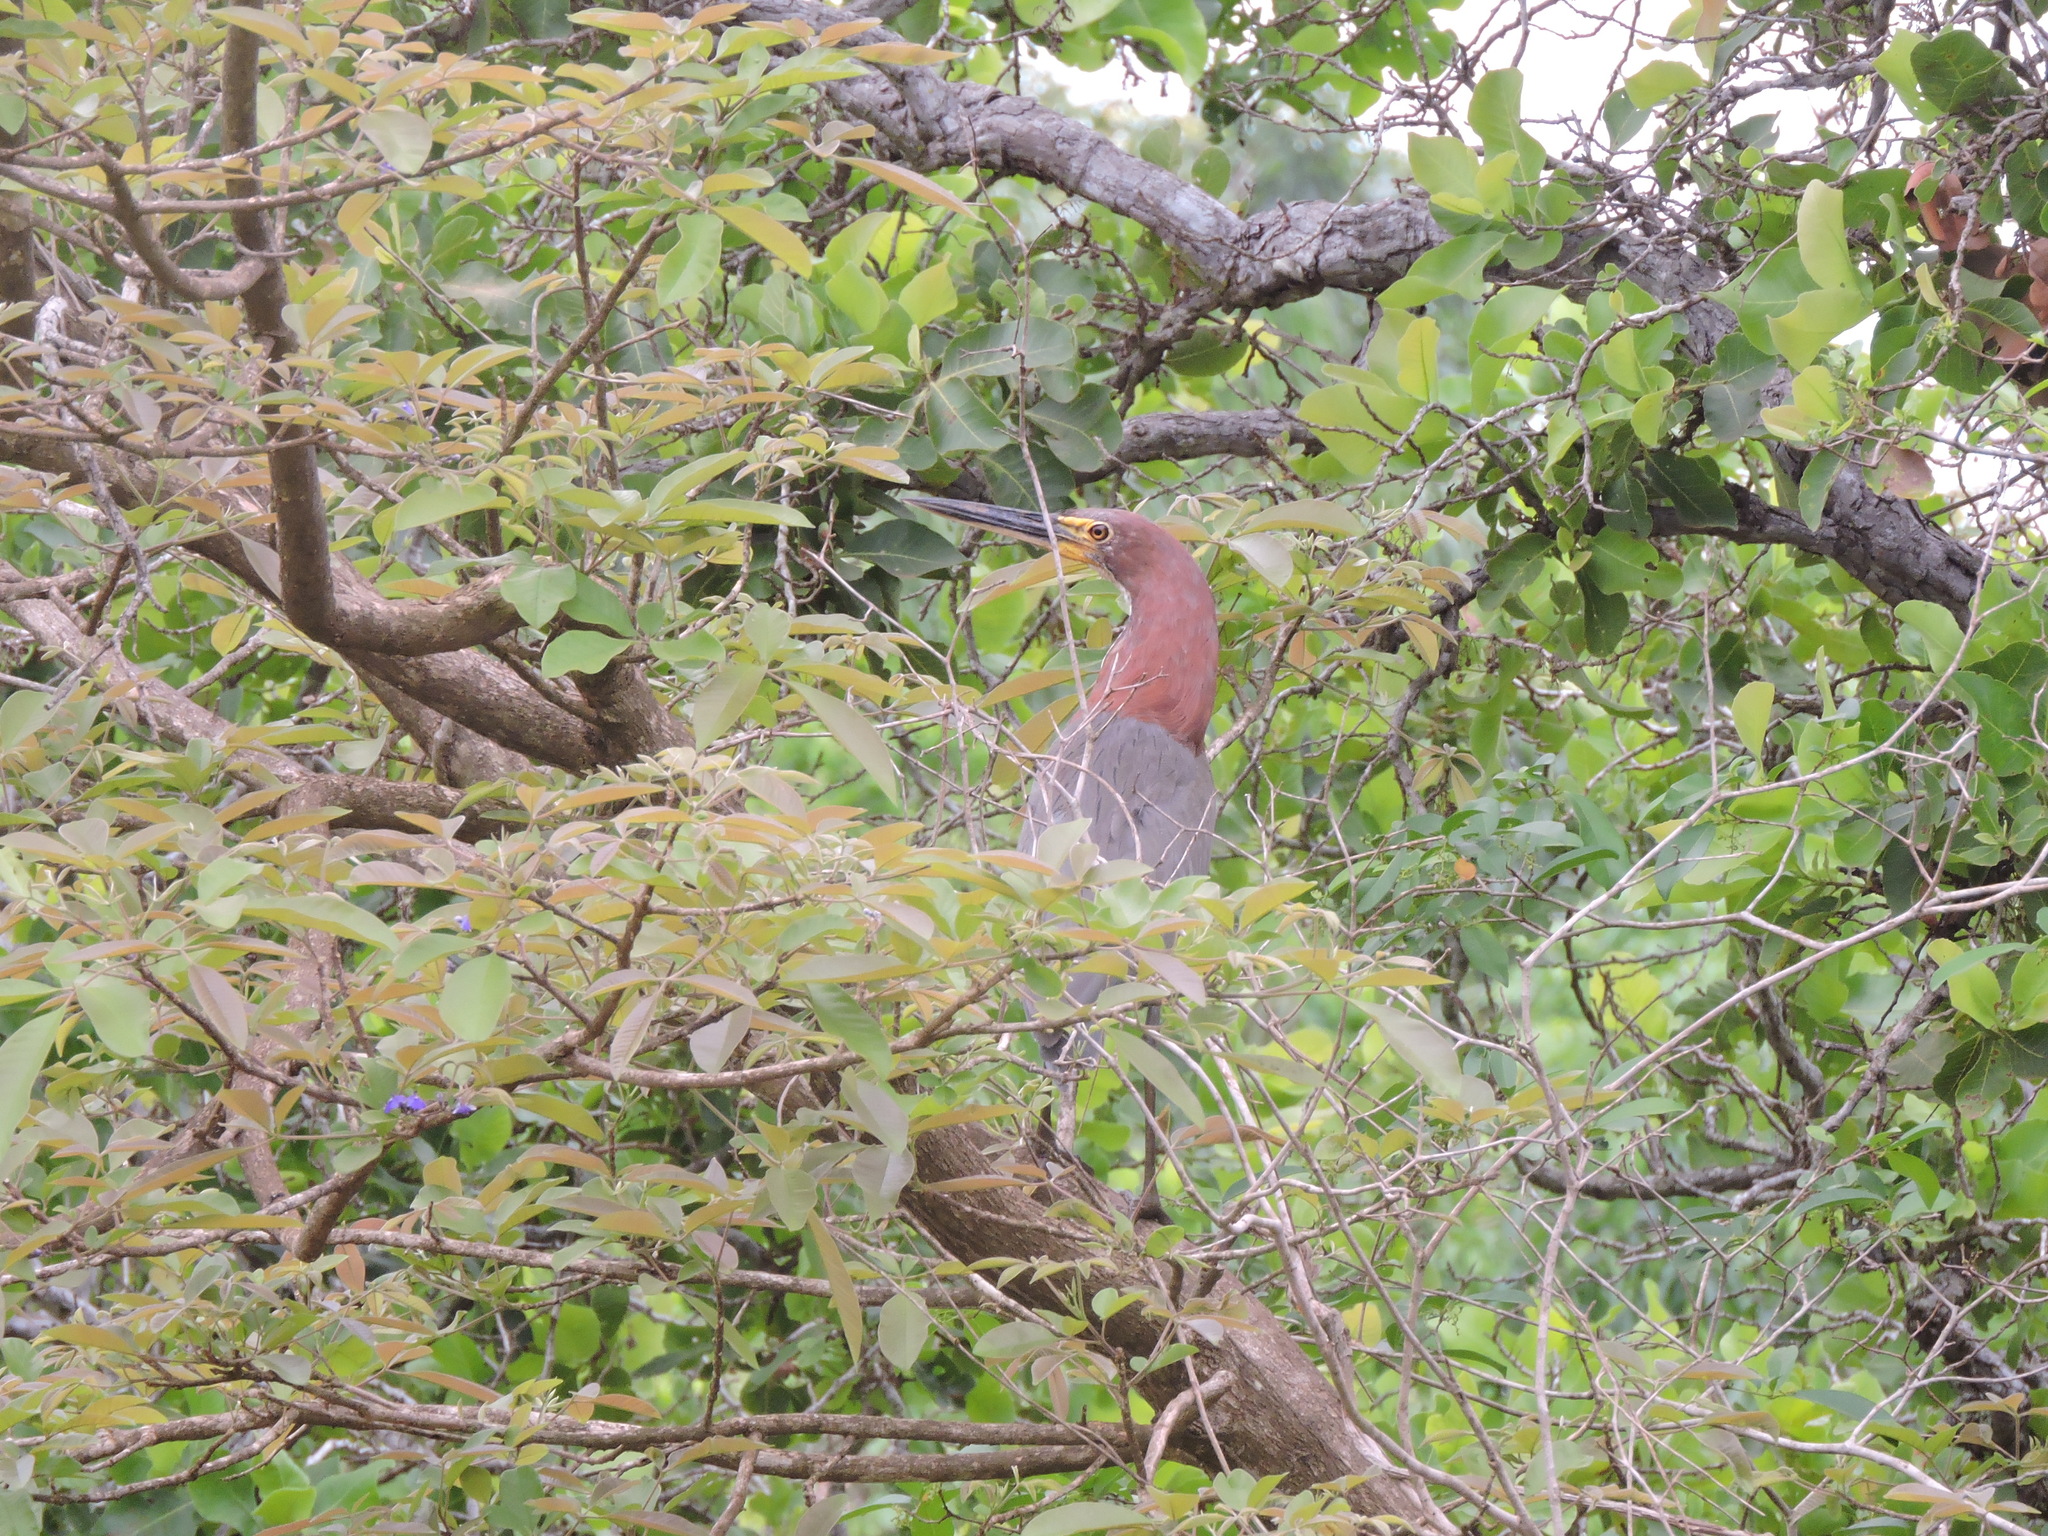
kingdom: Animalia
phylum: Chordata
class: Aves
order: Pelecaniformes
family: Ardeidae
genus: Tigrisoma
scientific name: Tigrisoma lineatum
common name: Rufescent tiger-heron
